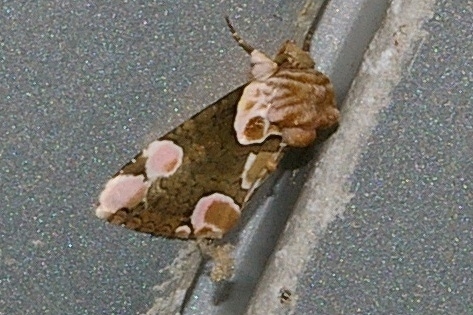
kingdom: Animalia
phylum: Arthropoda
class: Insecta
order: Lepidoptera
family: Drepanidae
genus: Thyatira
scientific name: Thyatira batis
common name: Peach blossom
